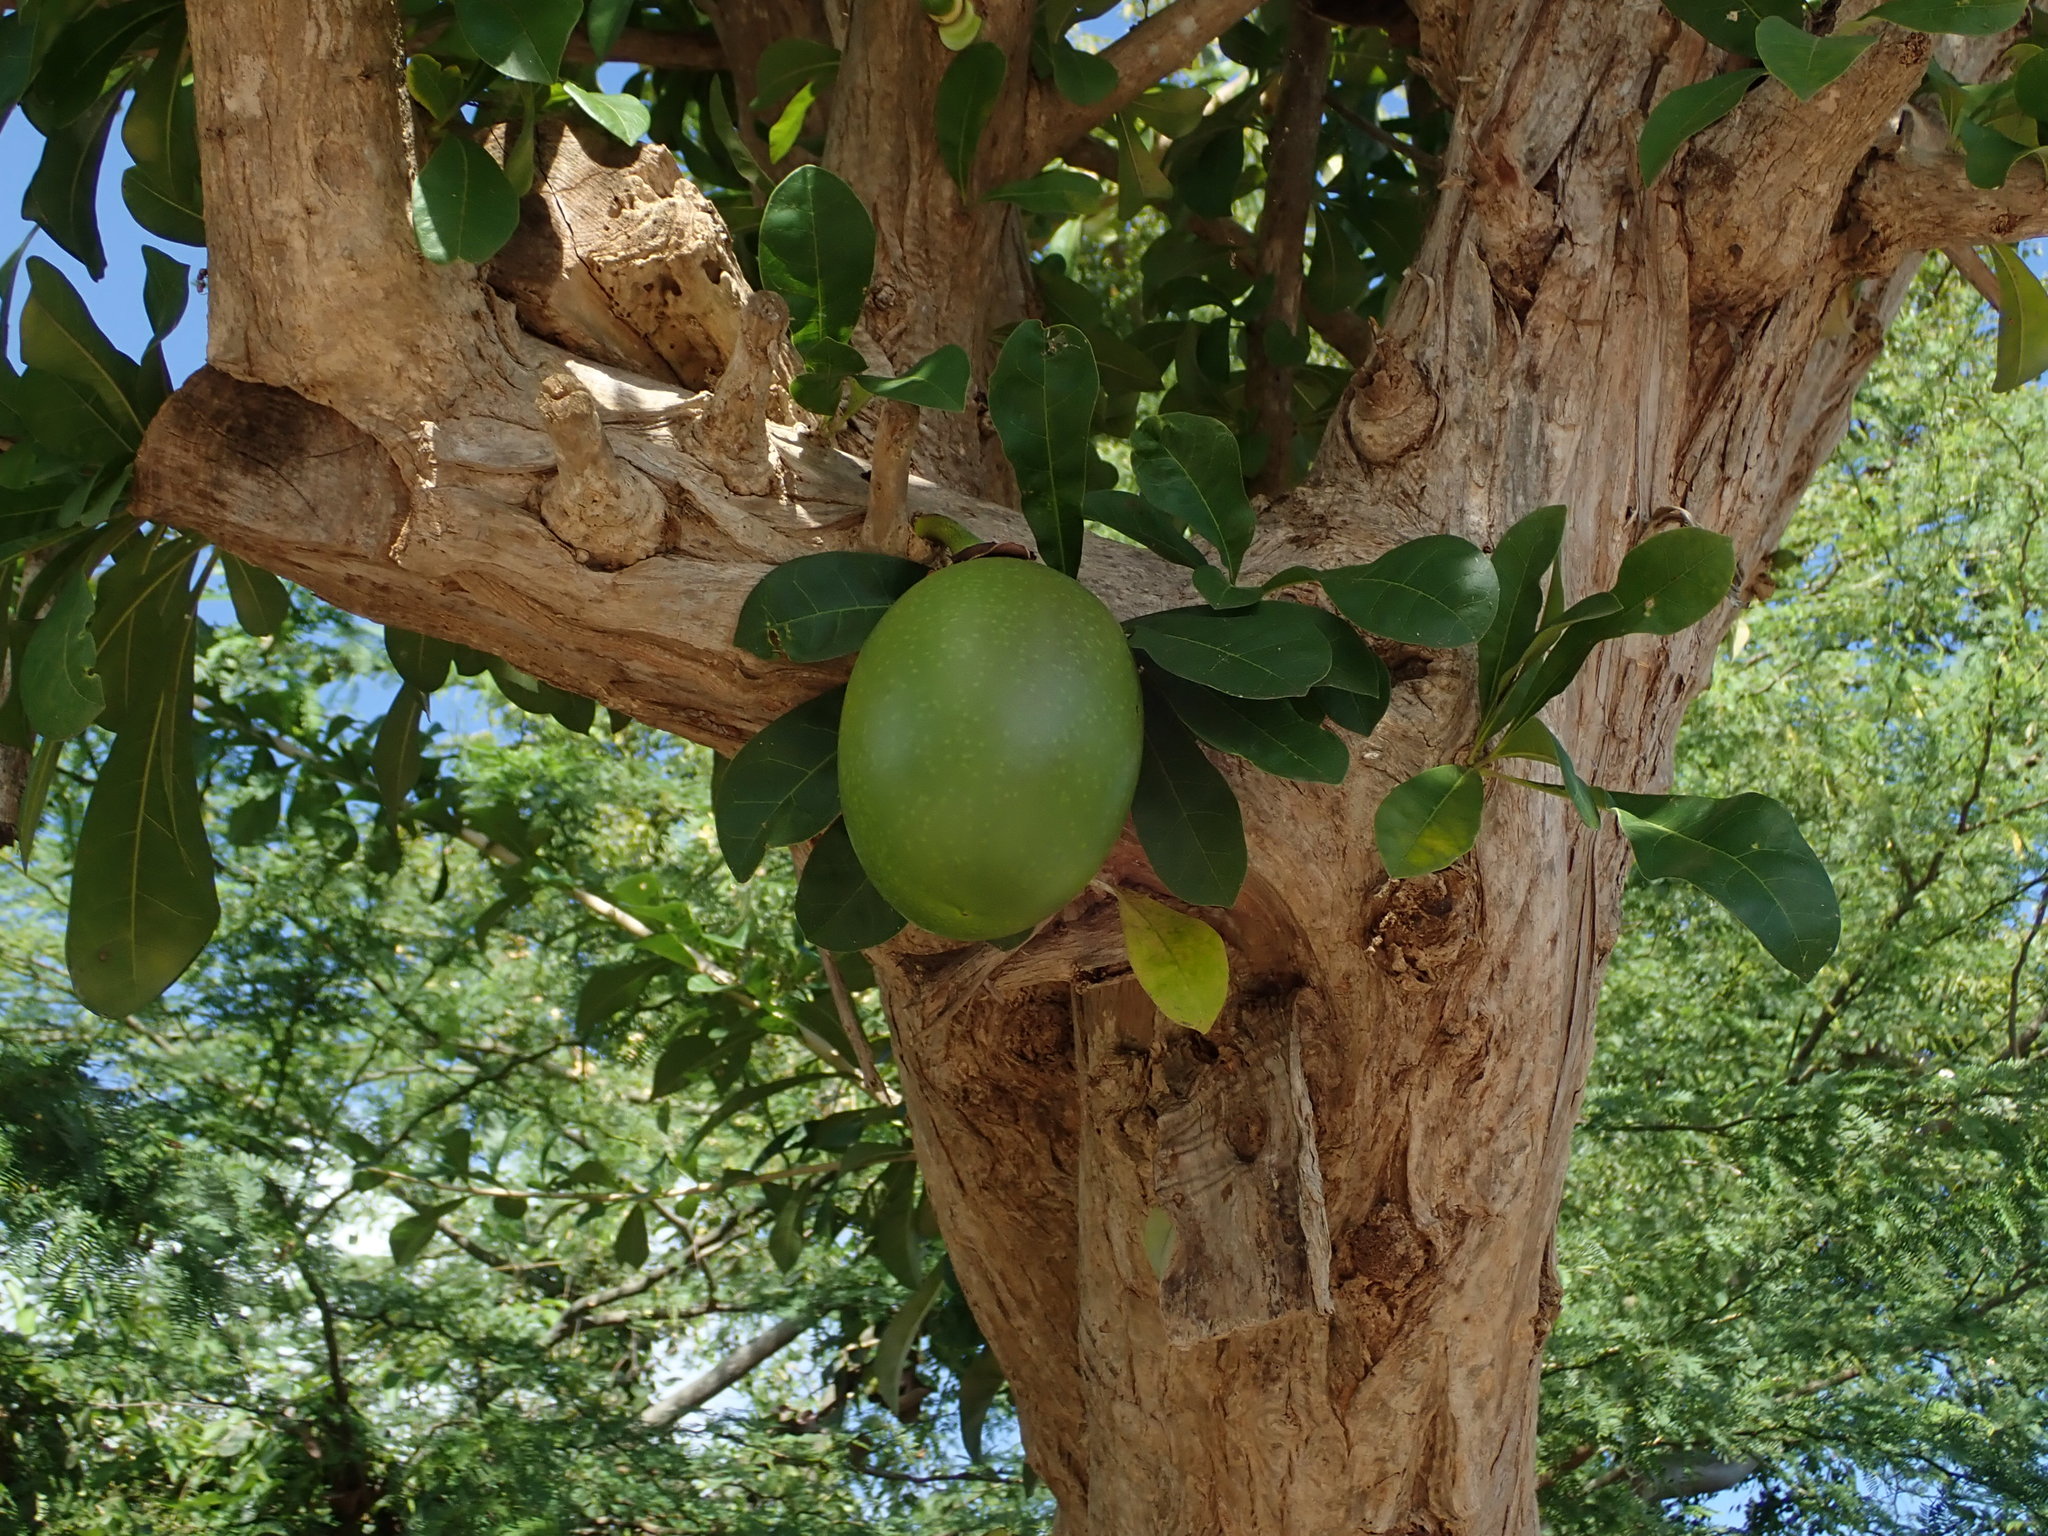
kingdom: Plantae
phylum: Tracheophyta
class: Magnoliopsida
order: Lamiales
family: Bignoniaceae
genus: Crescentia
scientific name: Crescentia cujete
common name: Calabash
